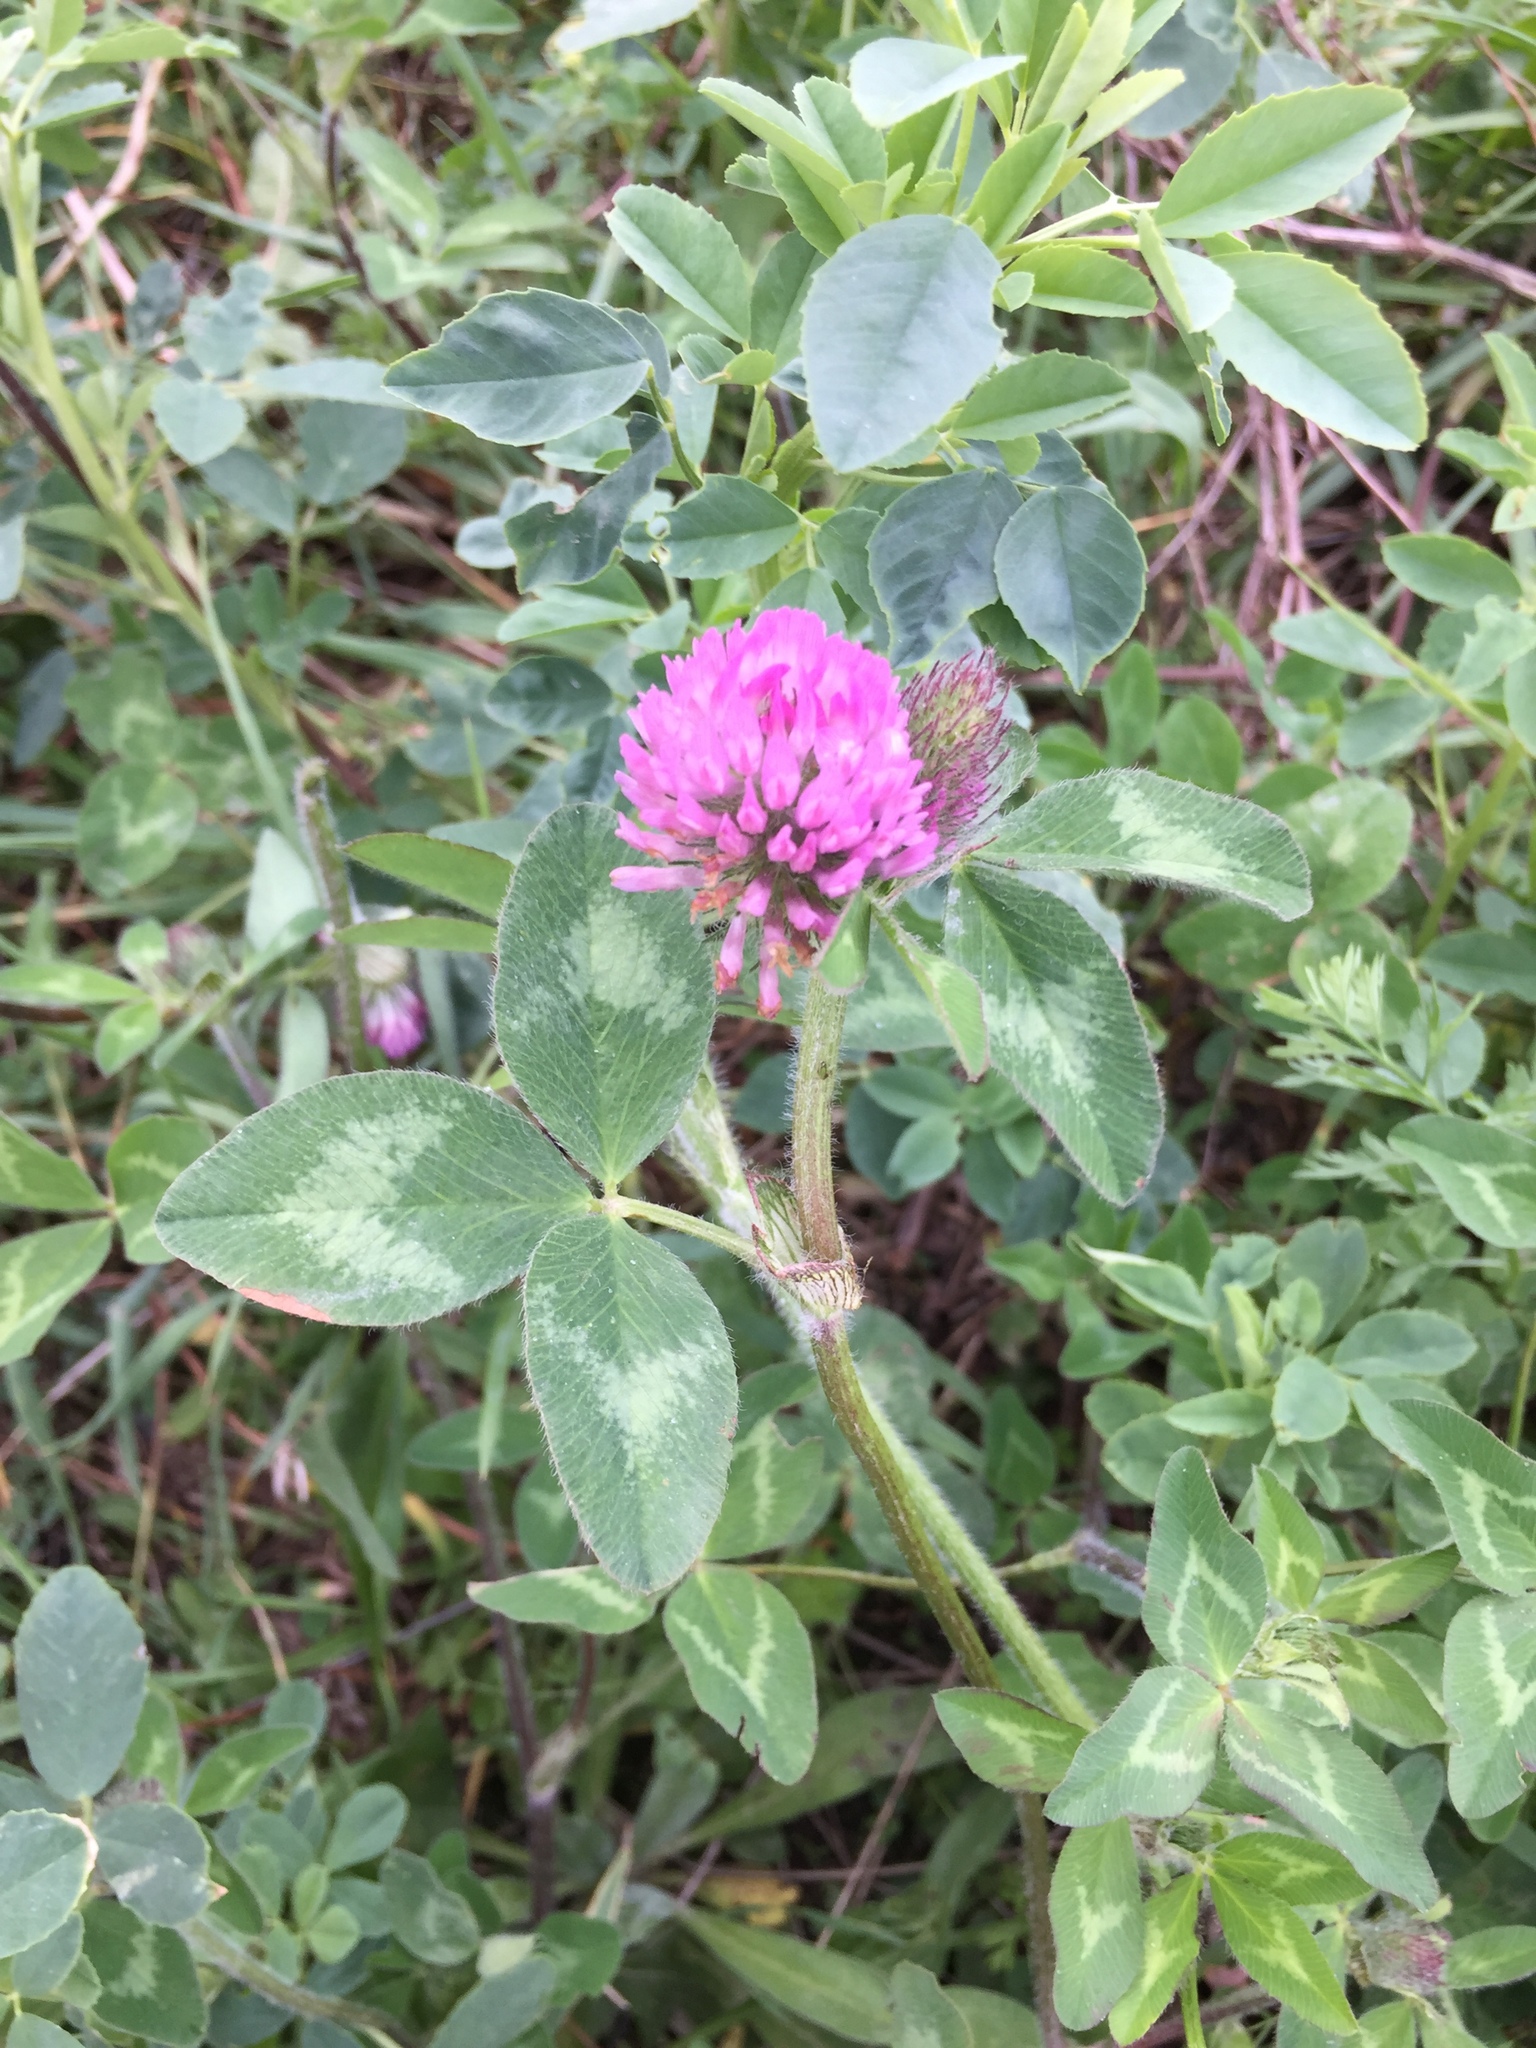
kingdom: Plantae
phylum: Tracheophyta
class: Magnoliopsida
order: Fabales
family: Fabaceae
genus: Trifolium
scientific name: Trifolium pratense
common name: Red clover
